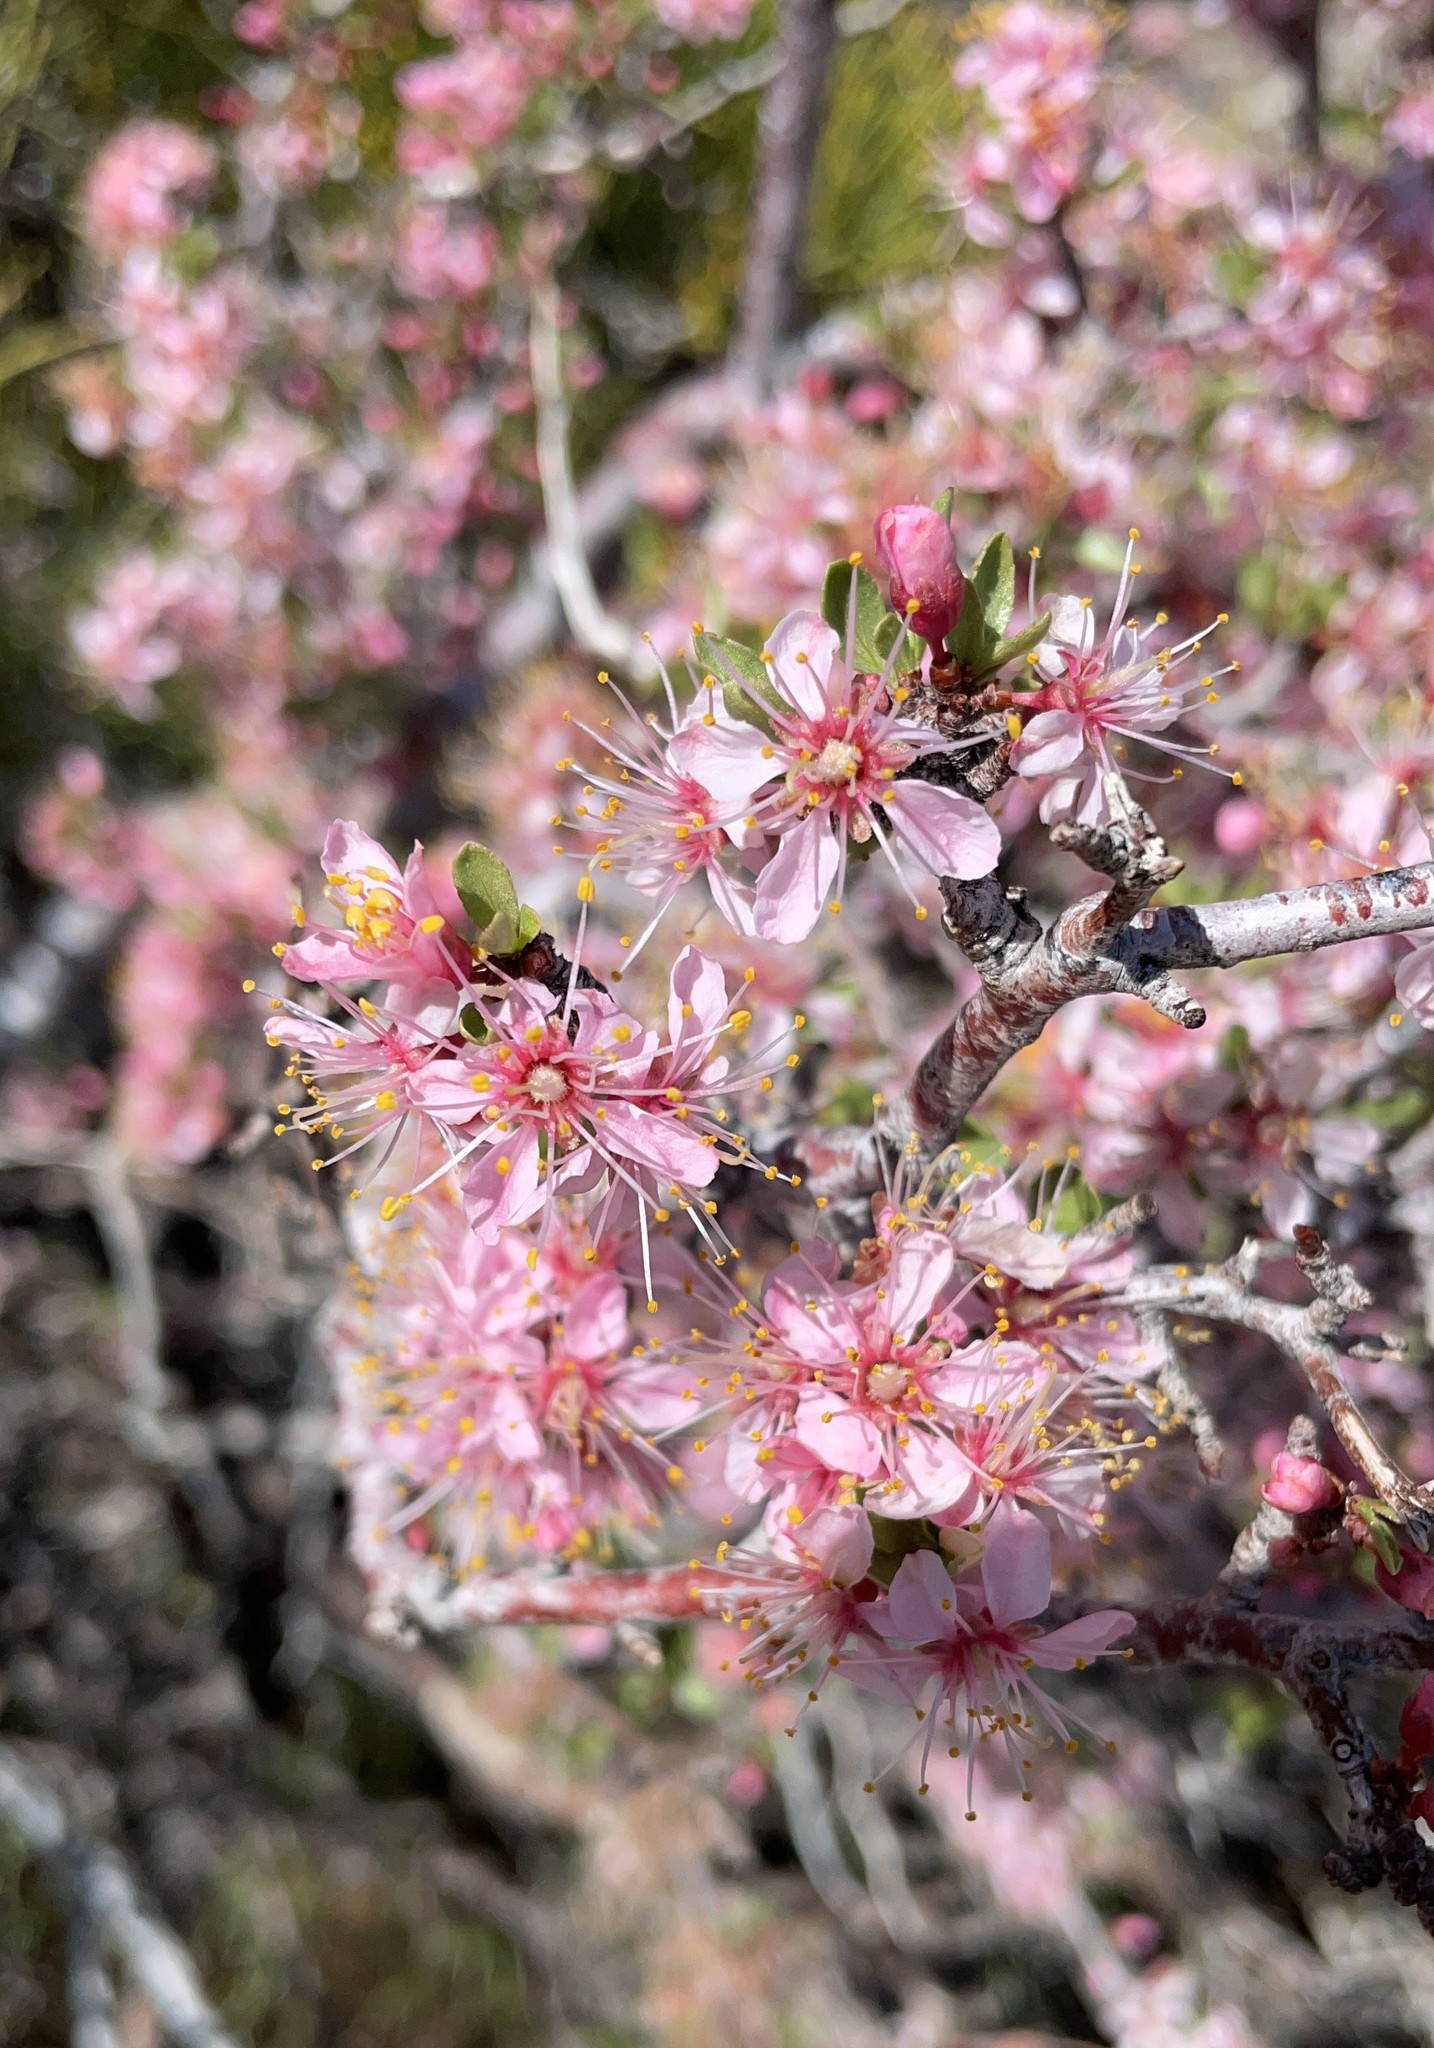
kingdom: Plantae
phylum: Tracheophyta
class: Magnoliopsida
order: Rosales
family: Rosaceae
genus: Prunus
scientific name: Prunus andersonii
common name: Desert peach
